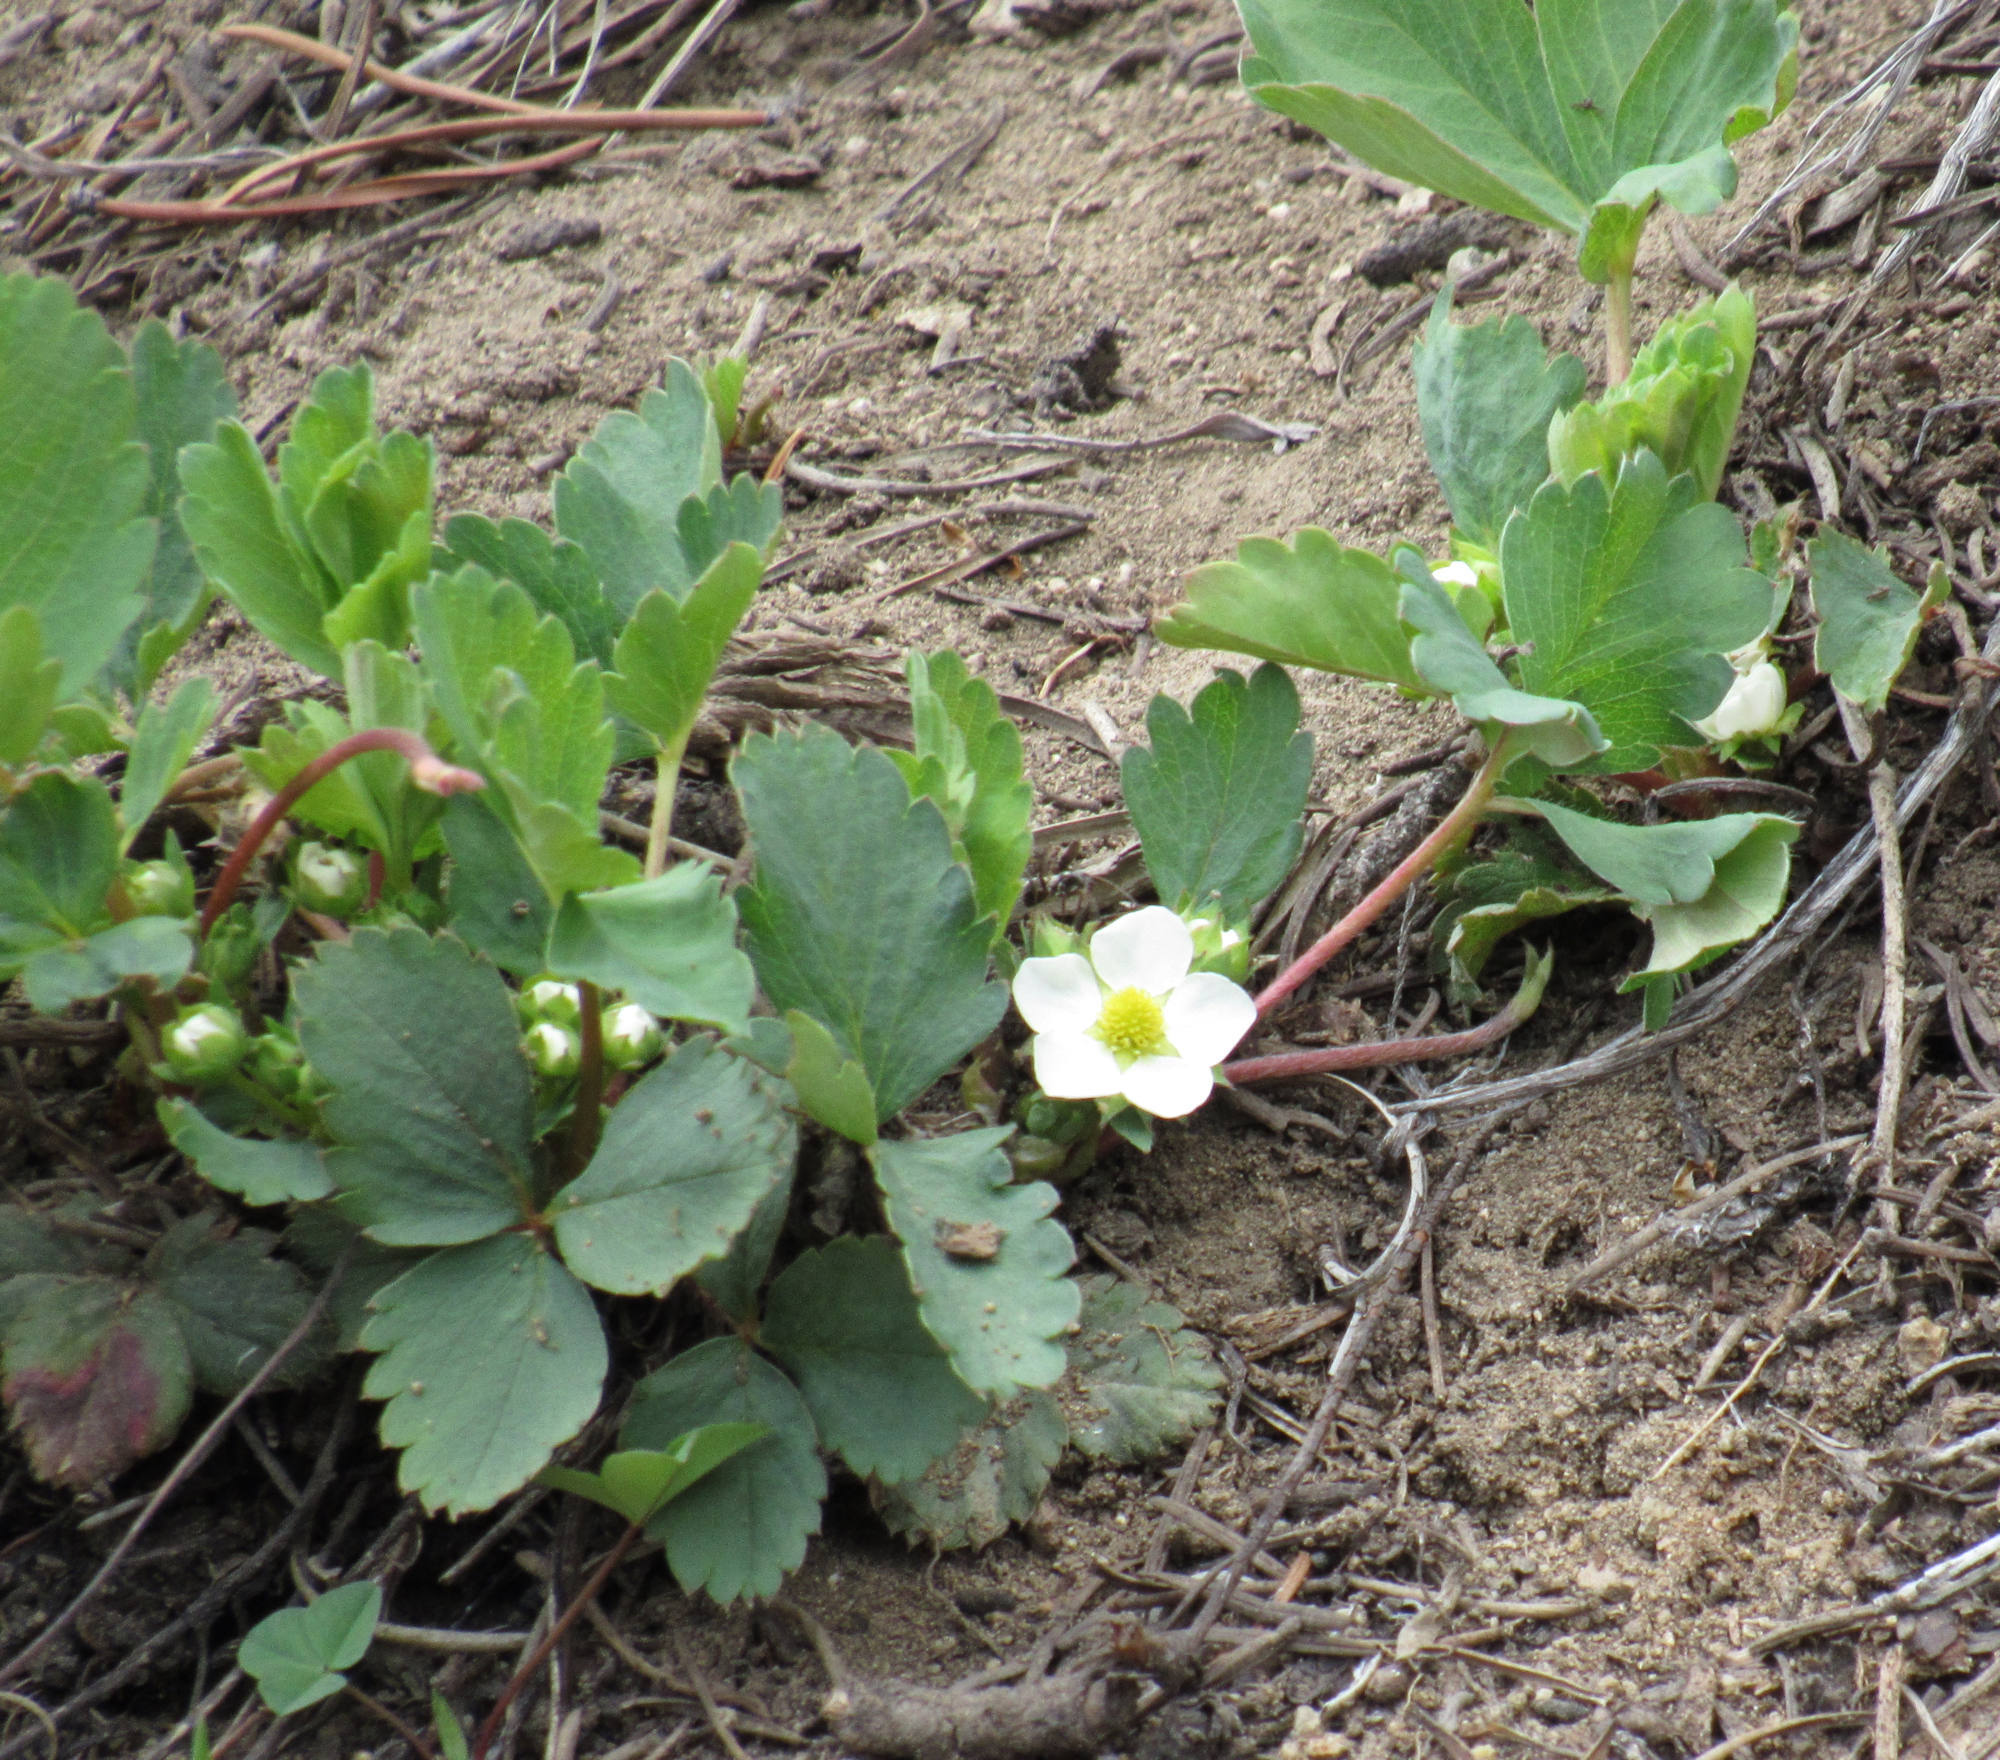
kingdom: Plantae
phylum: Tracheophyta
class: Magnoliopsida
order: Rosales
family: Rosaceae
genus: Fragaria
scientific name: Fragaria virginiana
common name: Thickleaved wild strawberry
